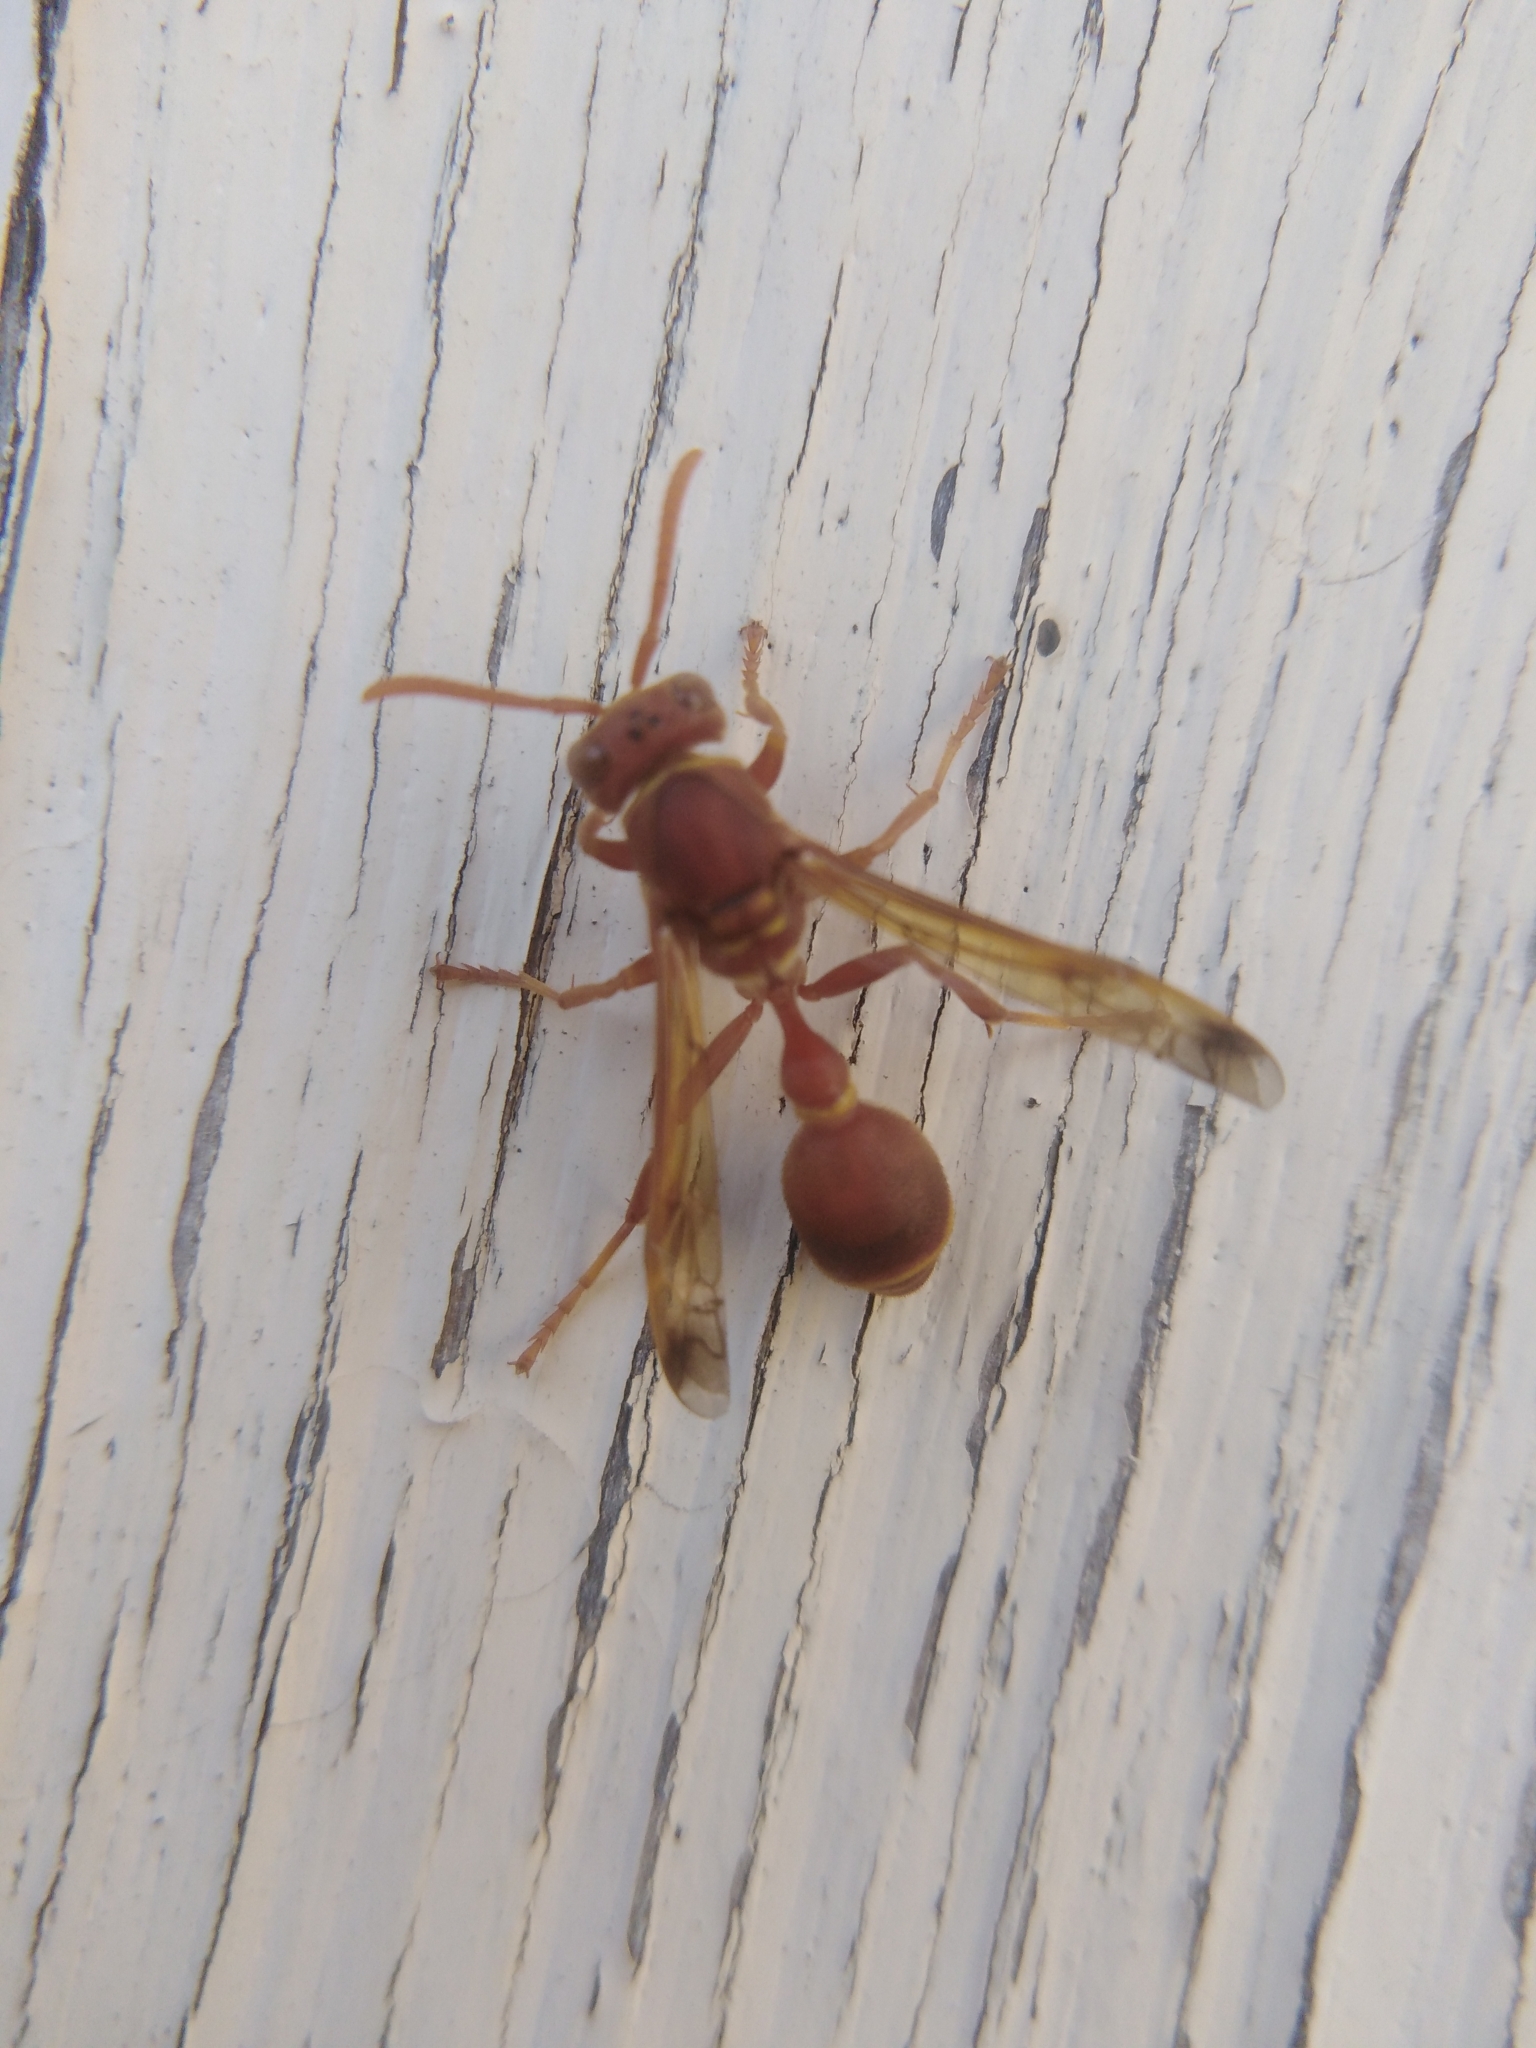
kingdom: Animalia
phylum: Arthropoda
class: Insecta
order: Hymenoptera
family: Vespidae
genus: Ropalidia
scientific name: Ropalidia marginata
